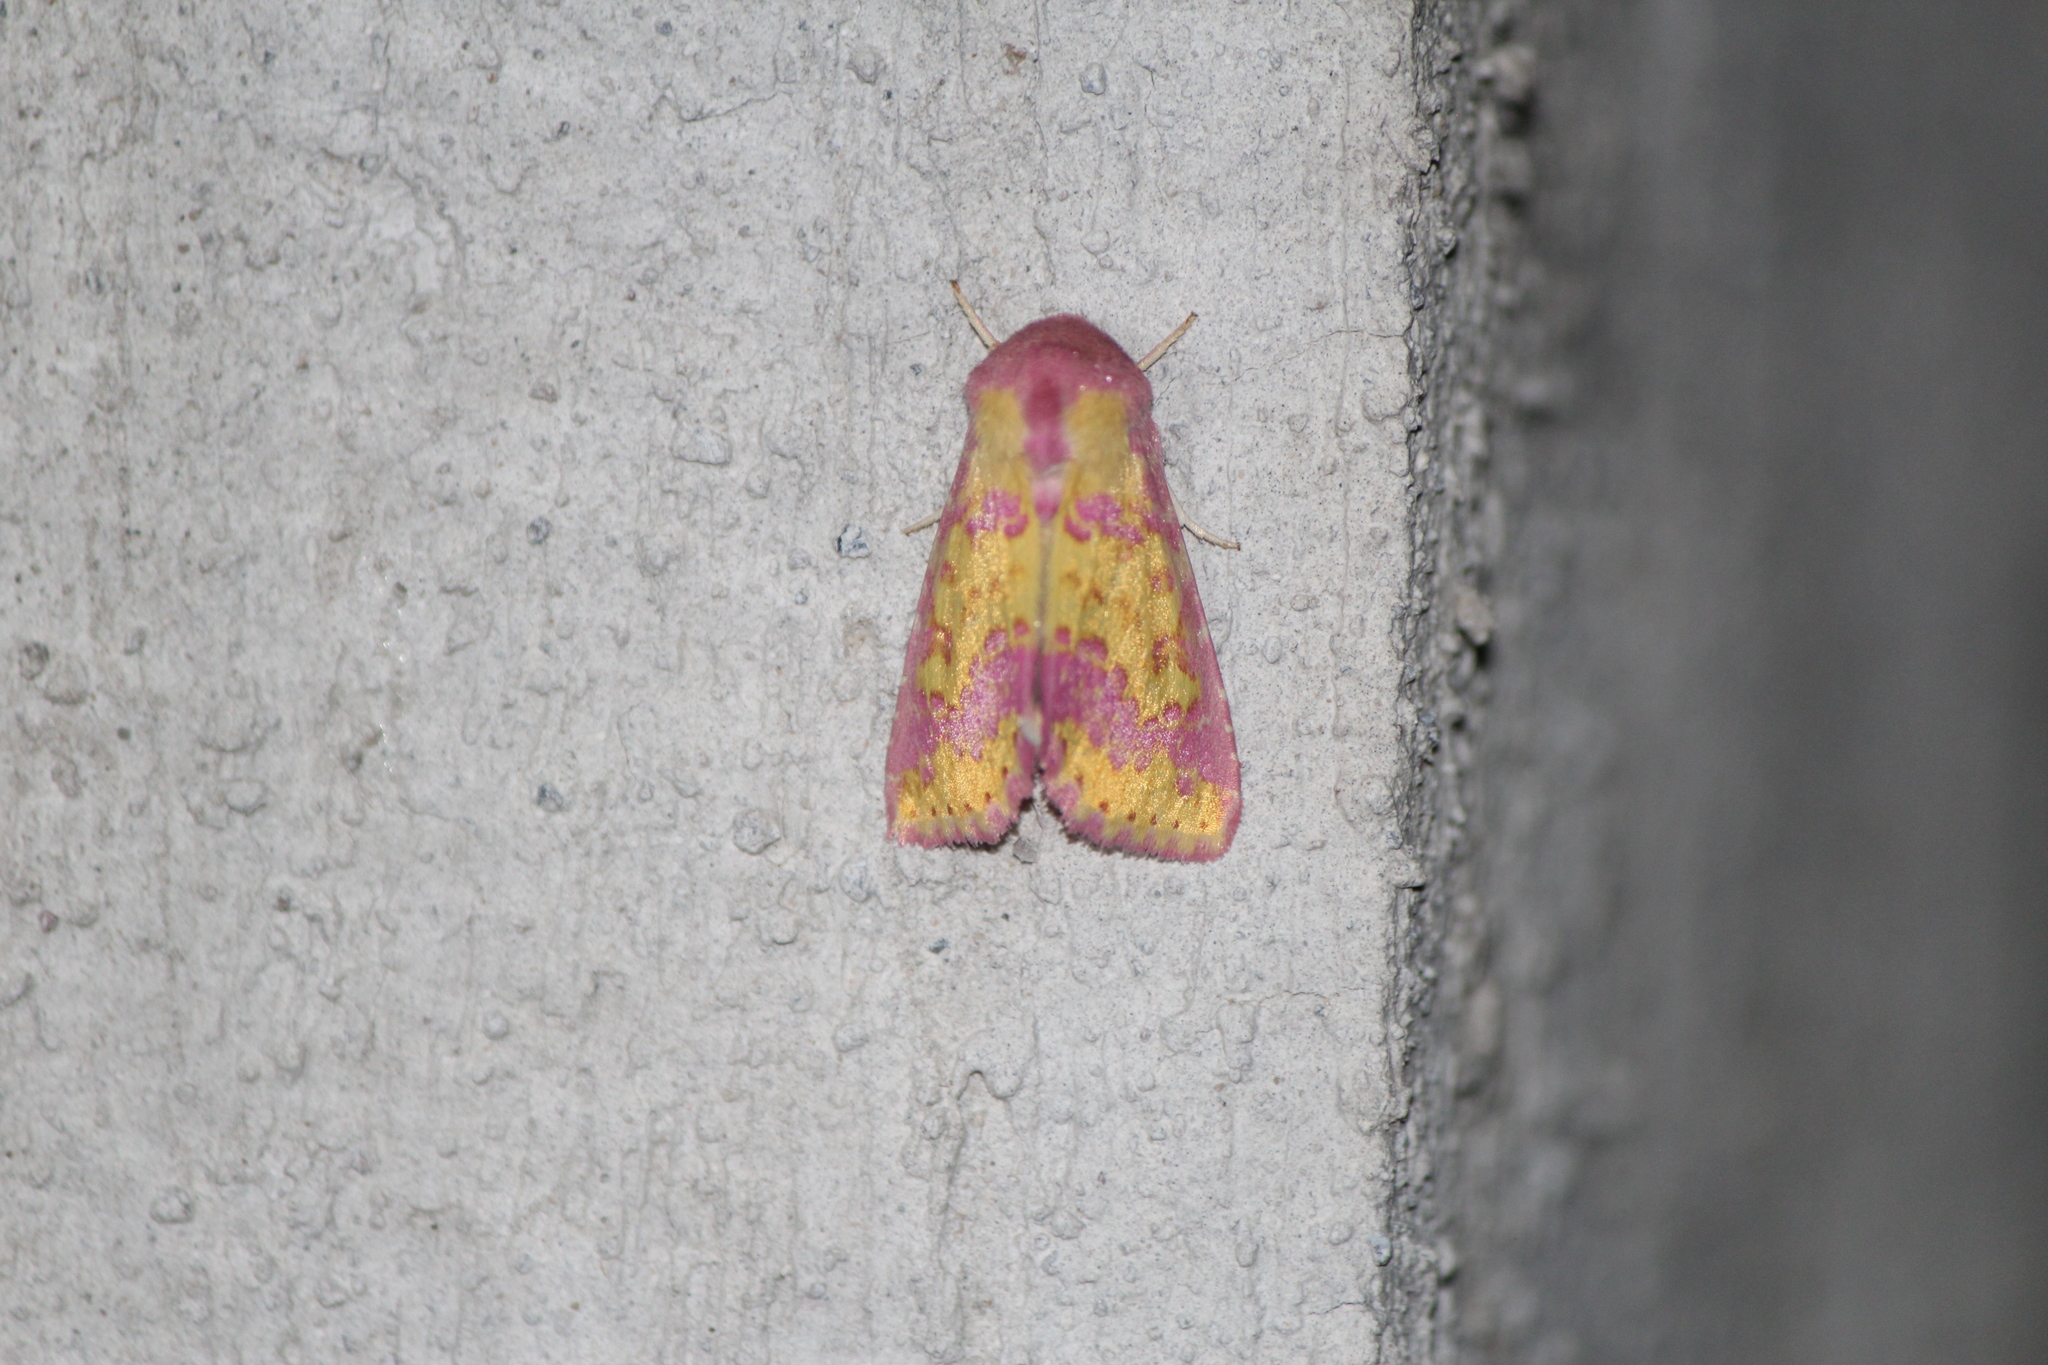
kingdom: Animalia
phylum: Arthropoda
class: Insecta
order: Lepidoptera
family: Noctuidae
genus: Erythroecia
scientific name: Erythroecia euposis
